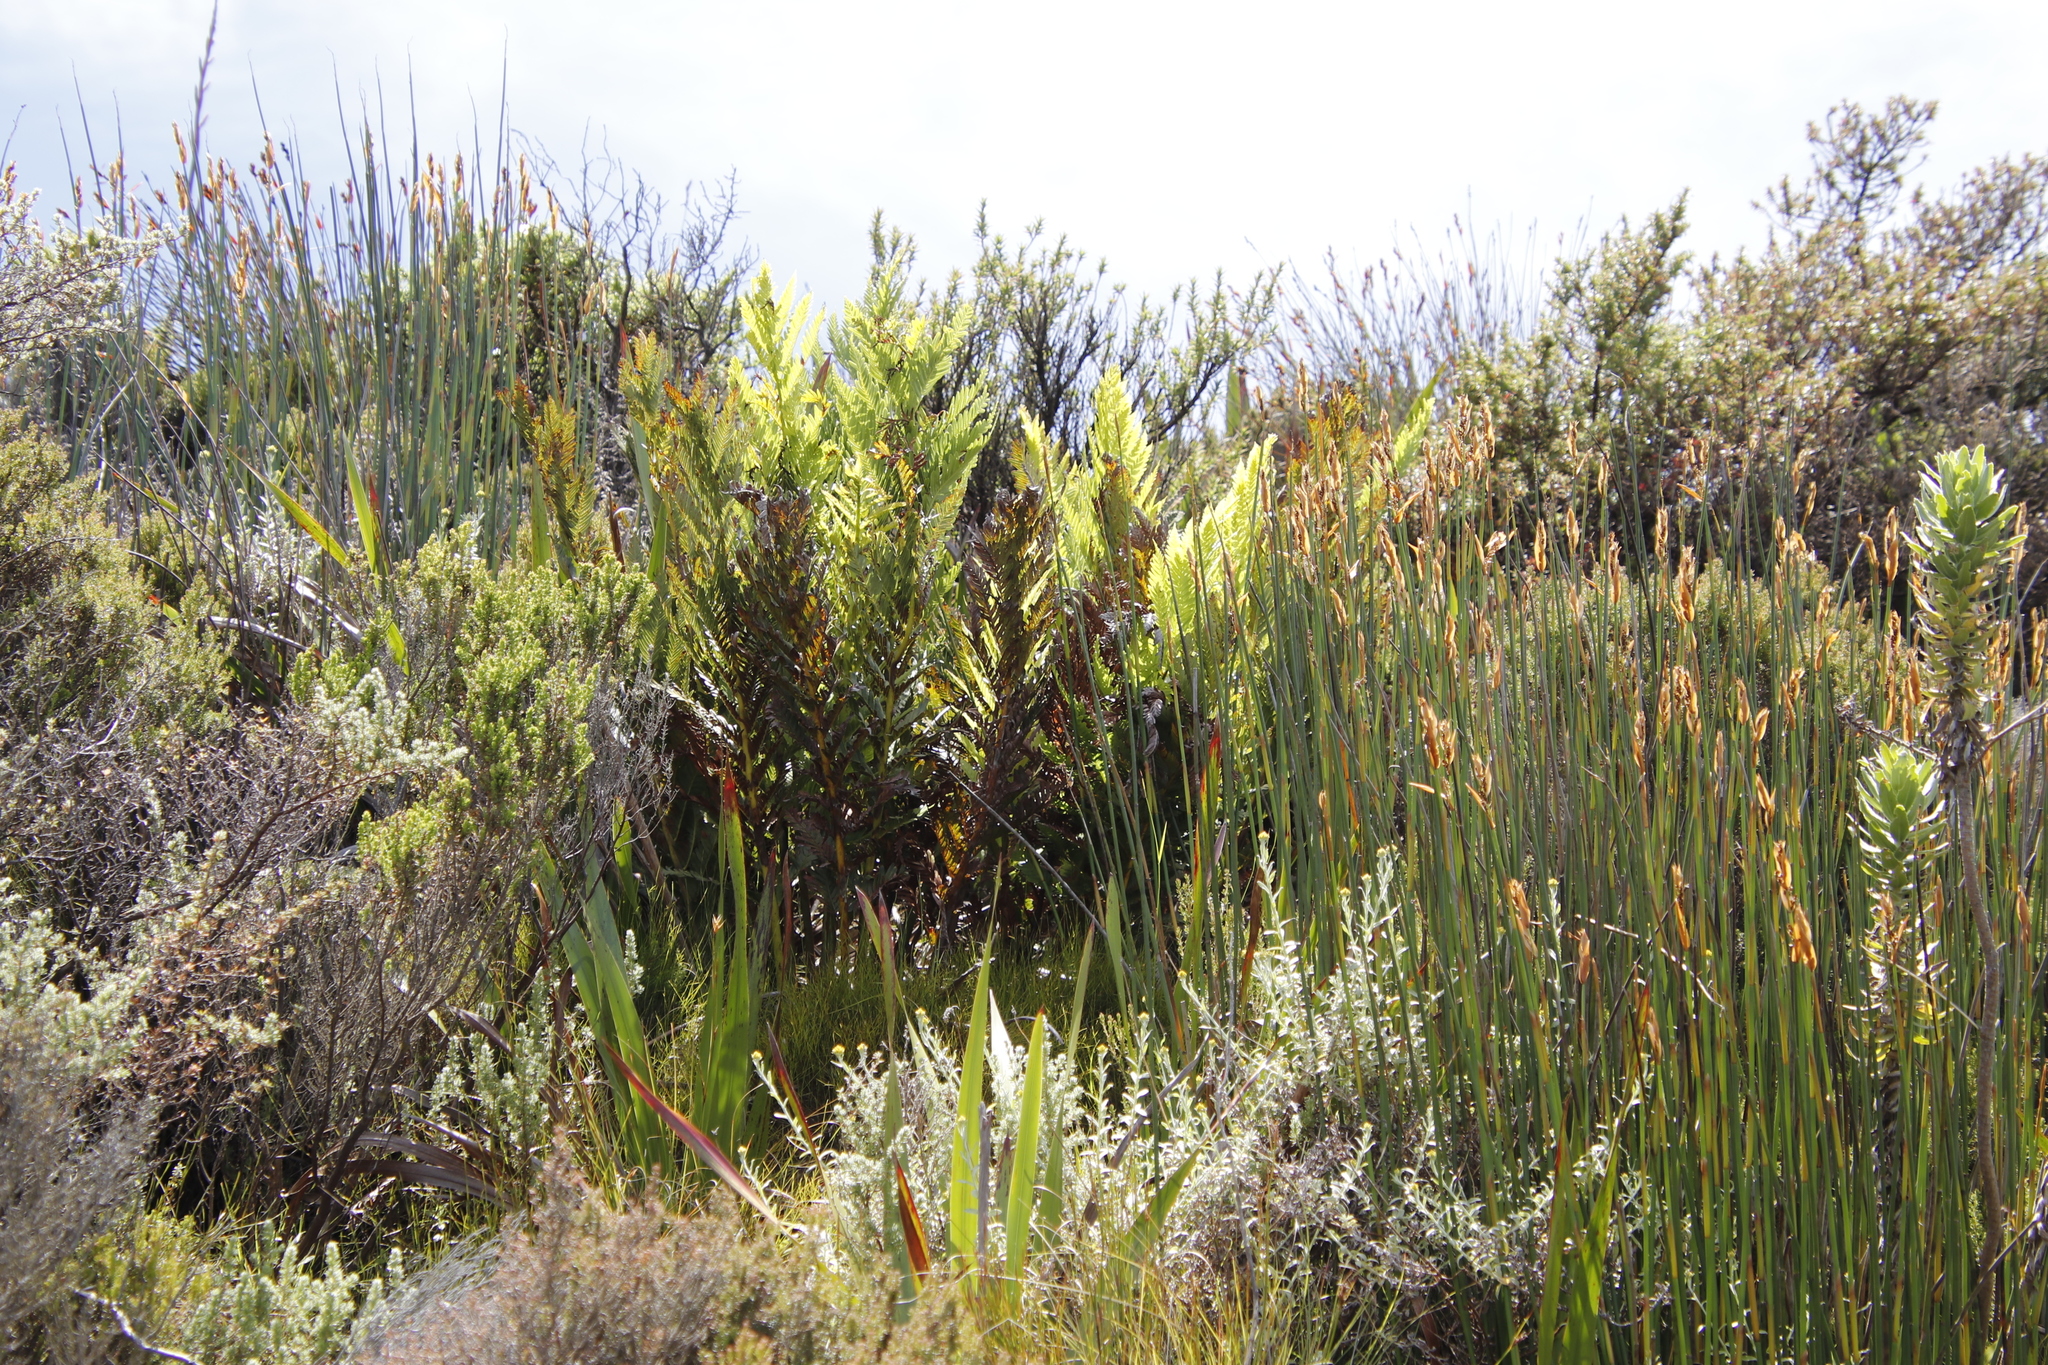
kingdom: Plantae
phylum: Tracheophyta
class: Polypodiopsida
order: Osmundales
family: Osmundaceae
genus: Todea
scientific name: Todea barbara
